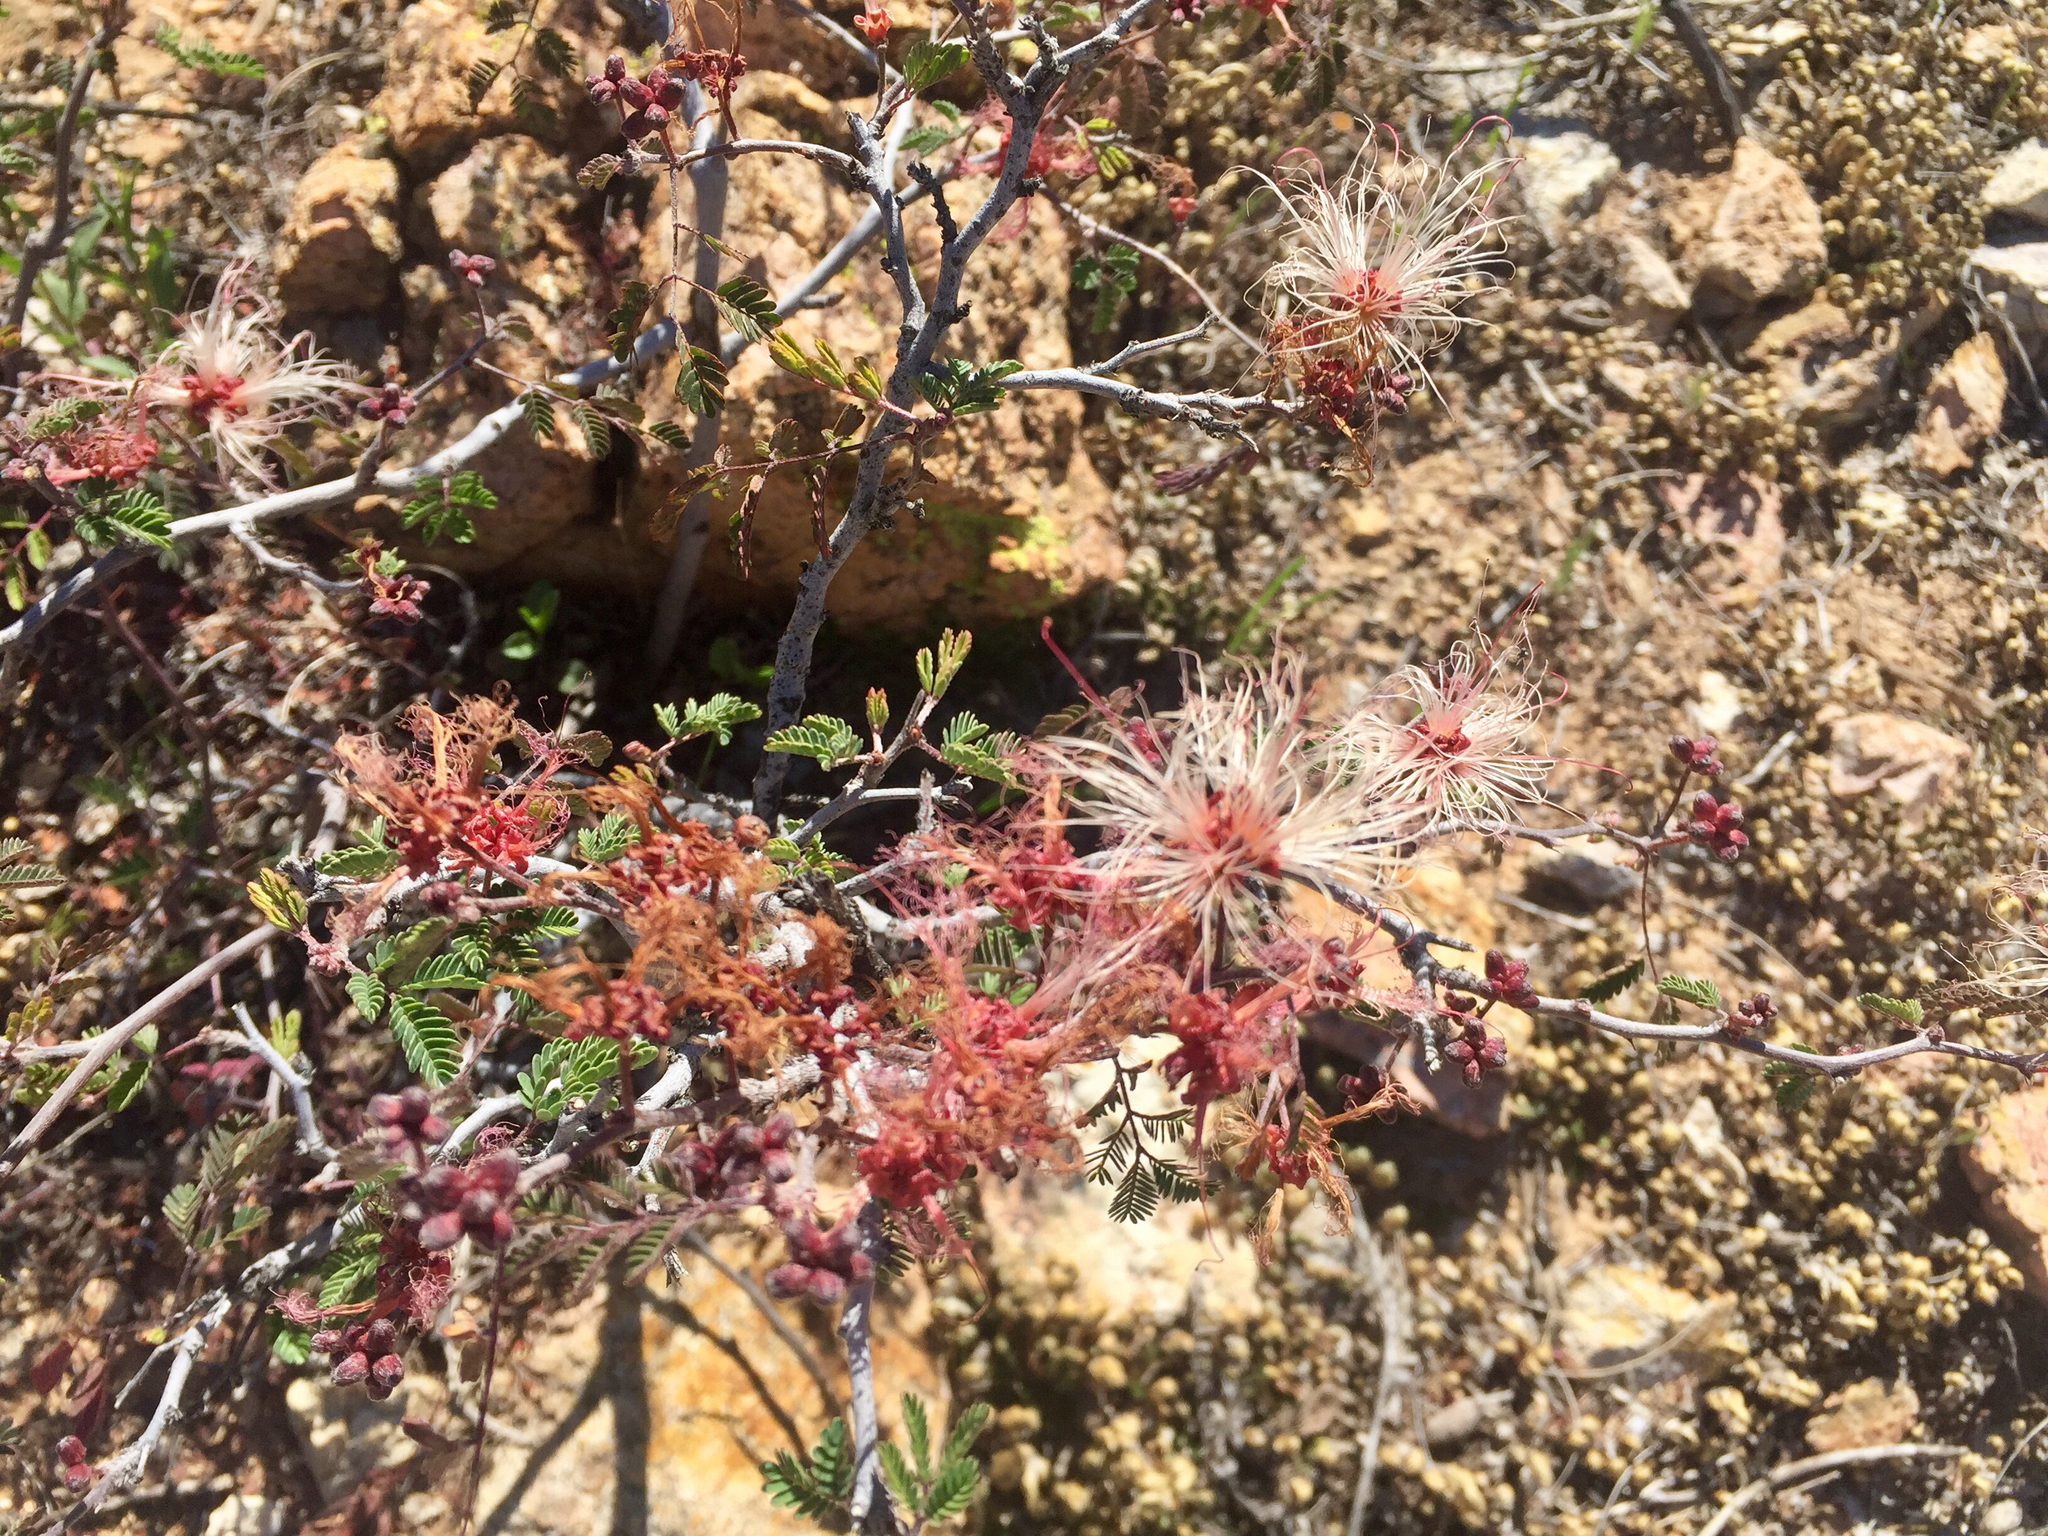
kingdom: Plantae
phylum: Tracheophyta
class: Magnoliopsida
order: Fabales
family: Fabaceae
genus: Calliandra
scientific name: Calliandra eriophylla
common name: Fairy-duster
